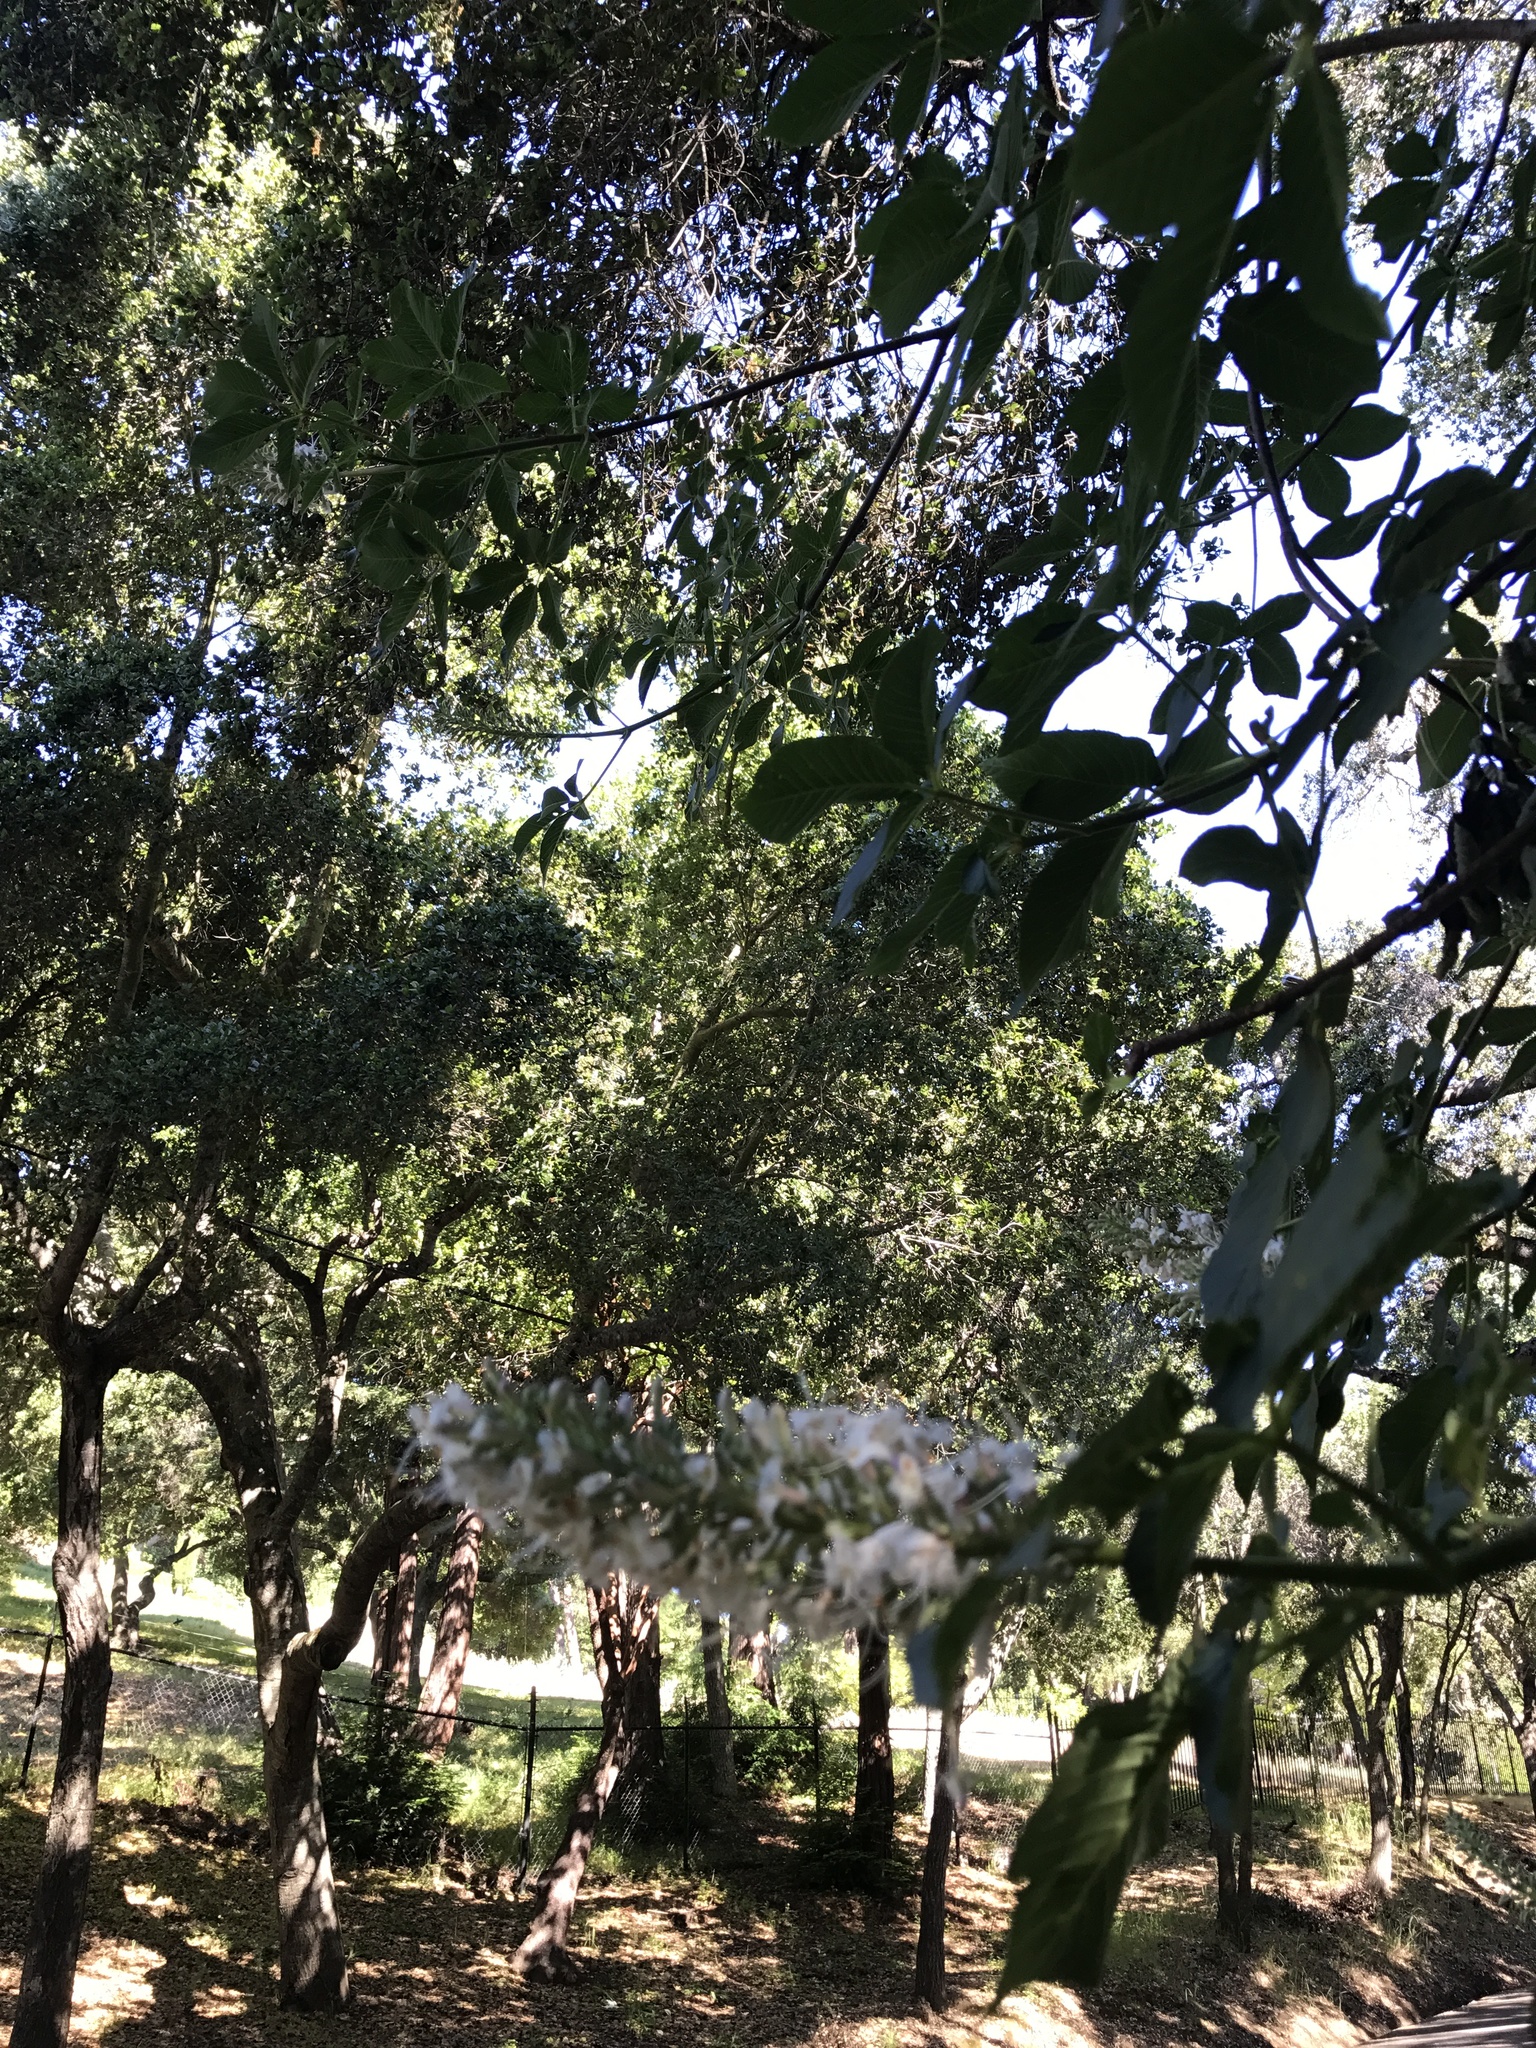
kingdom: Plantae
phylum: Tracheophyta
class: Magnoliopsida
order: Sapindales
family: Sapindaceae
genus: Aesculus
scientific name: Aesculus californica
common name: California buckeye
